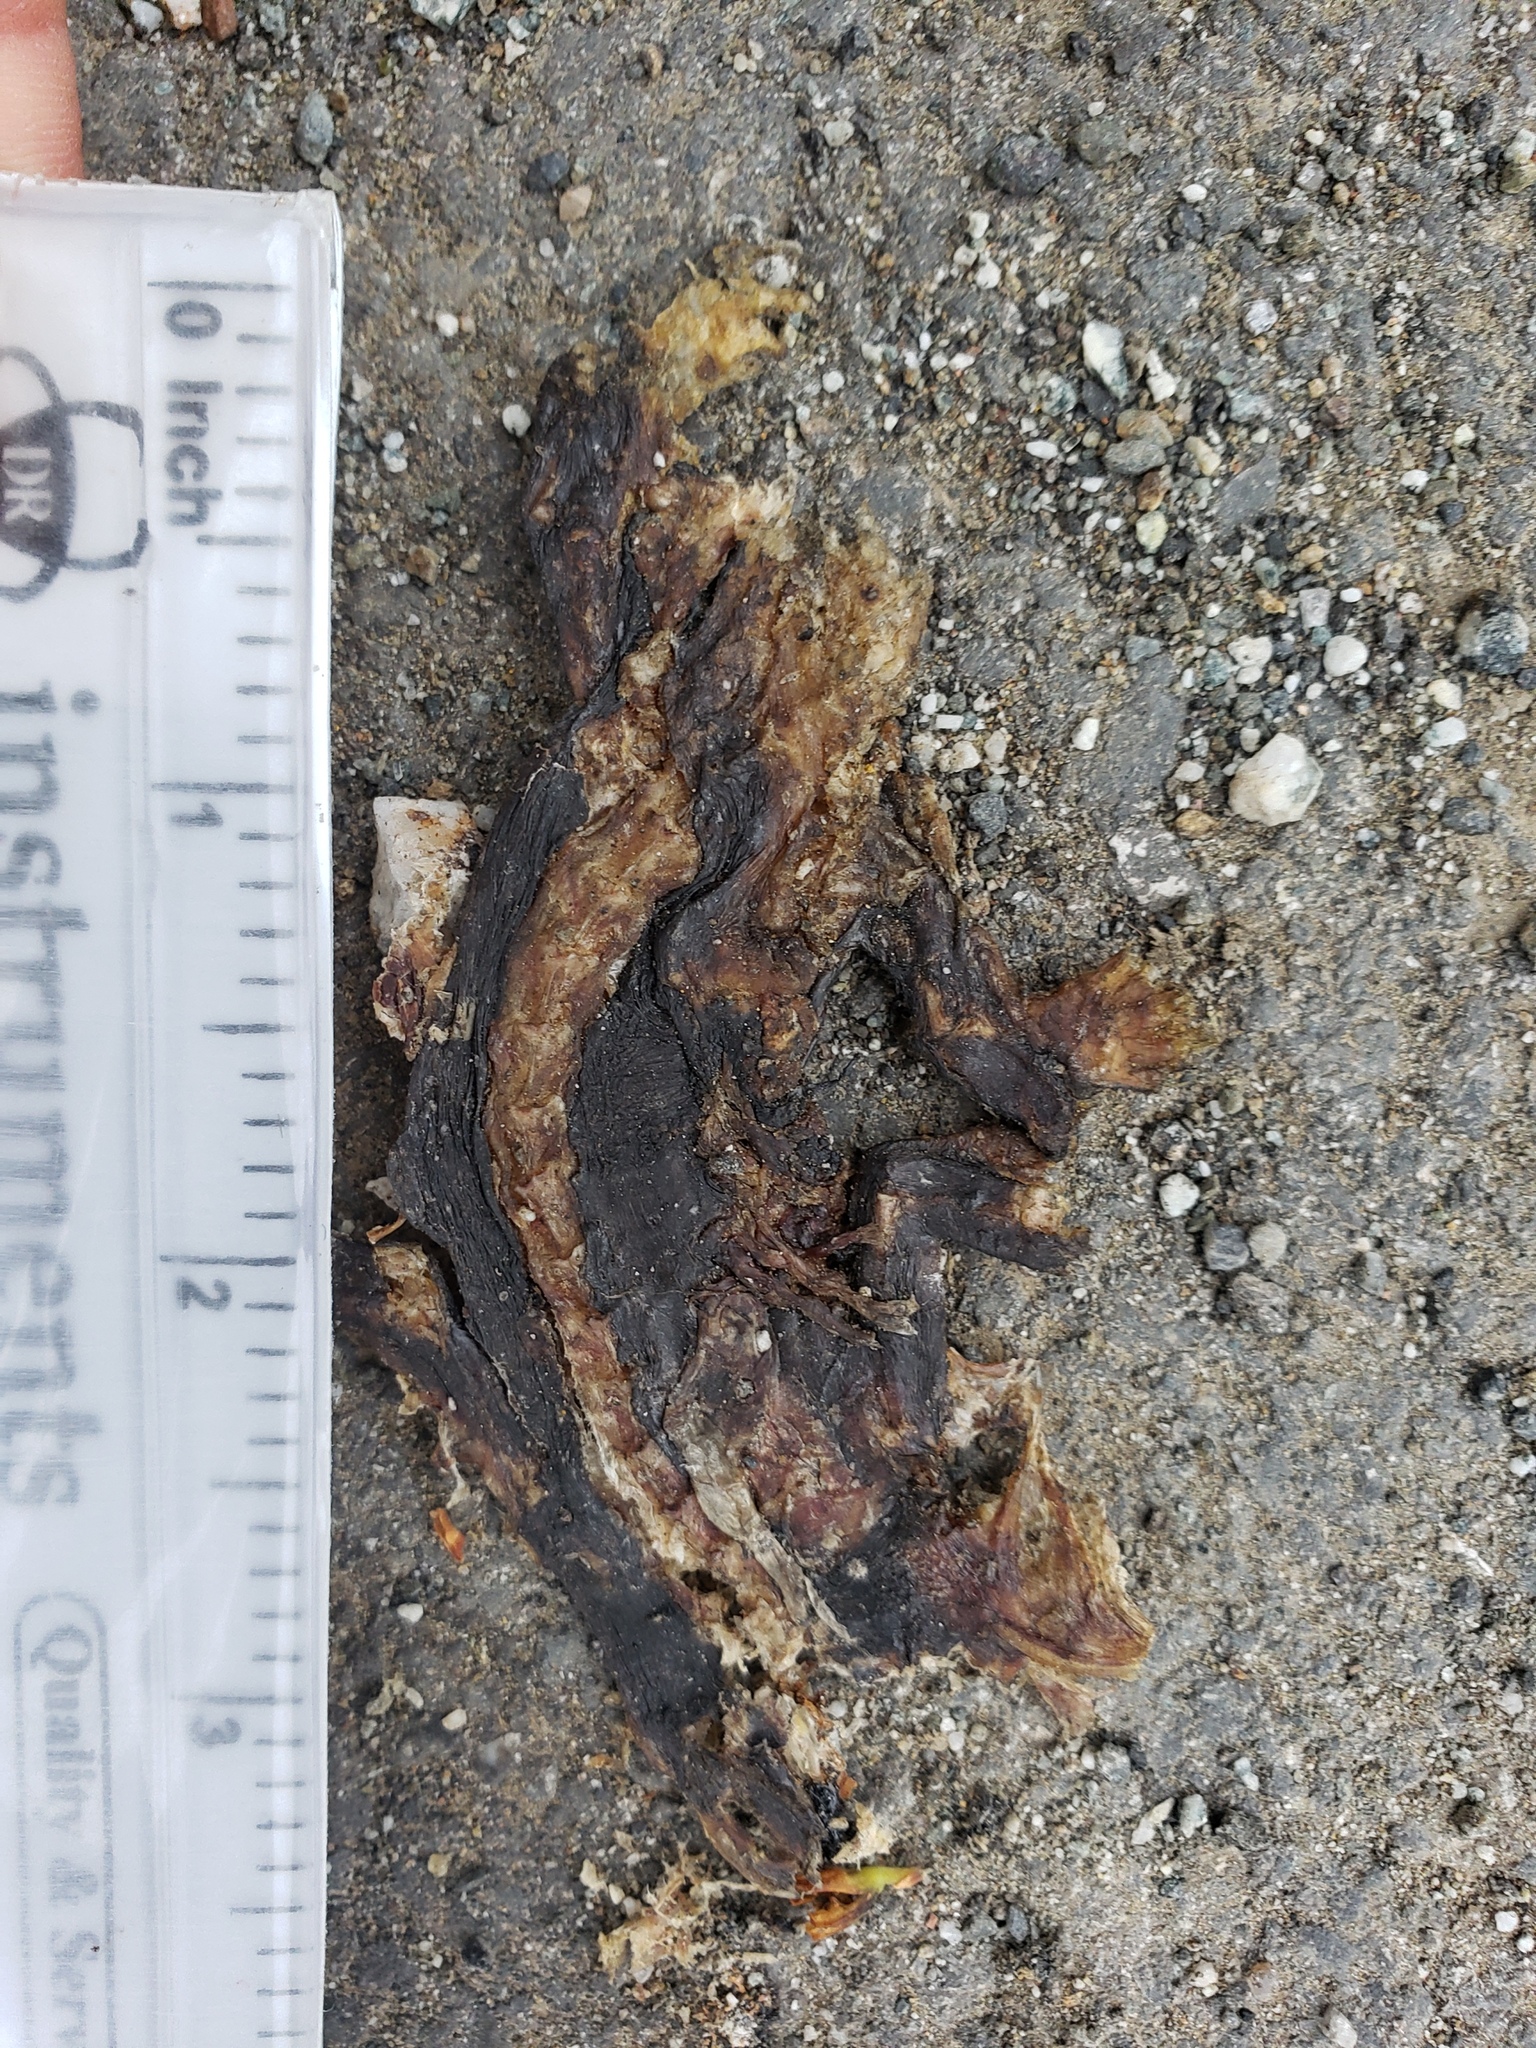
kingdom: Animalia
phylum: Chordata
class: Amphibia
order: Caudata
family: Salamandridae
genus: Taricha
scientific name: Taricha
